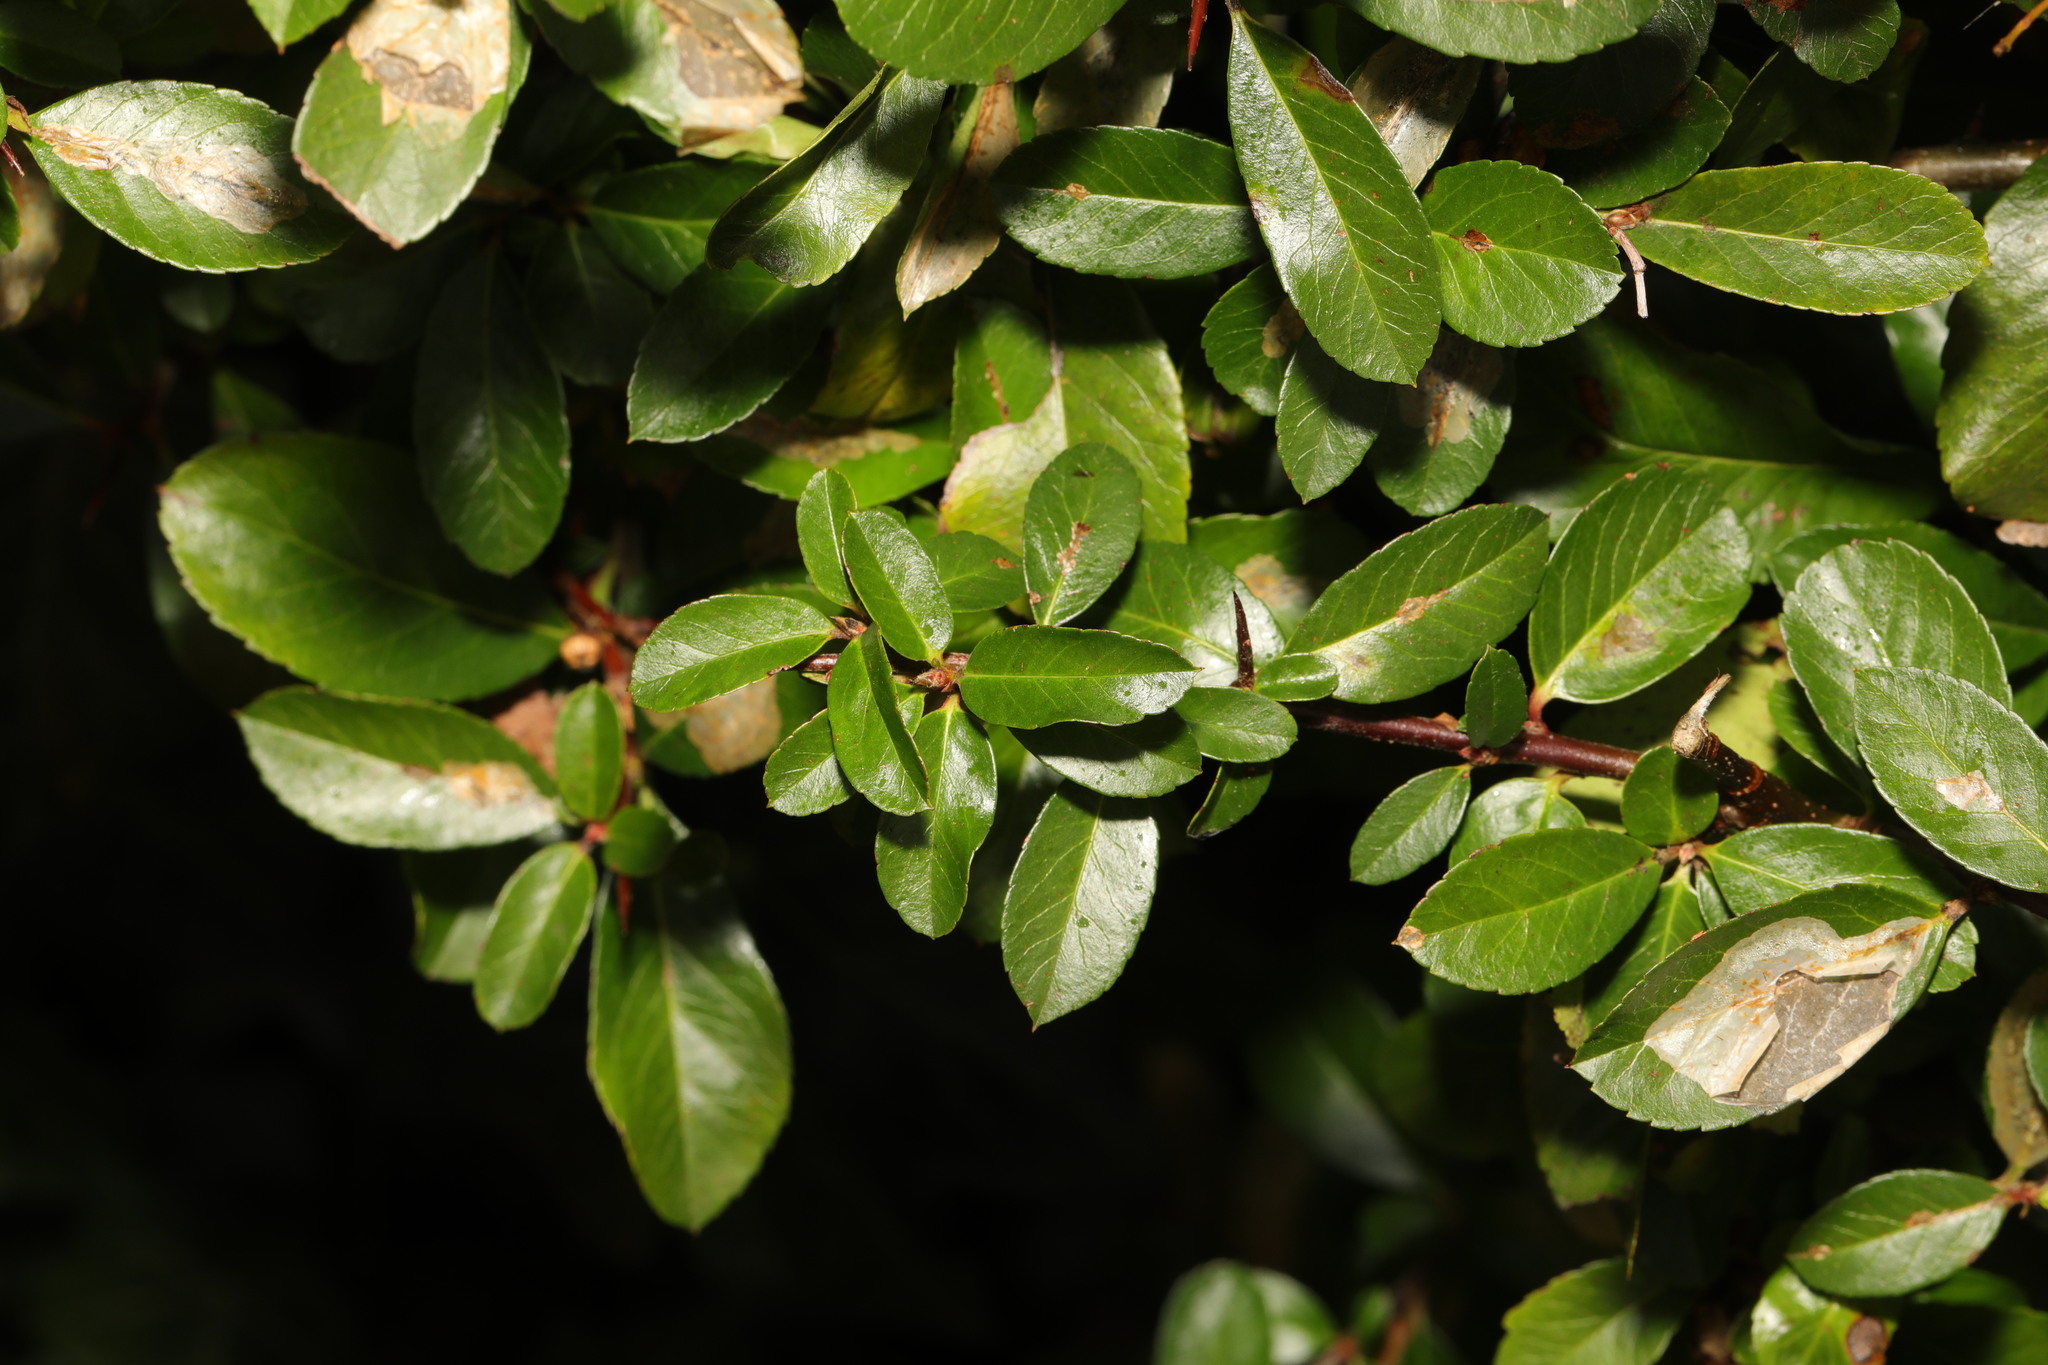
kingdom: Plantae
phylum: Tracheophyta
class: Magnoliopsida
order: Rosales
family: Rosaceae
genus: Pyracantha
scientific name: Pyracantha coccinea
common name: Firethorn
